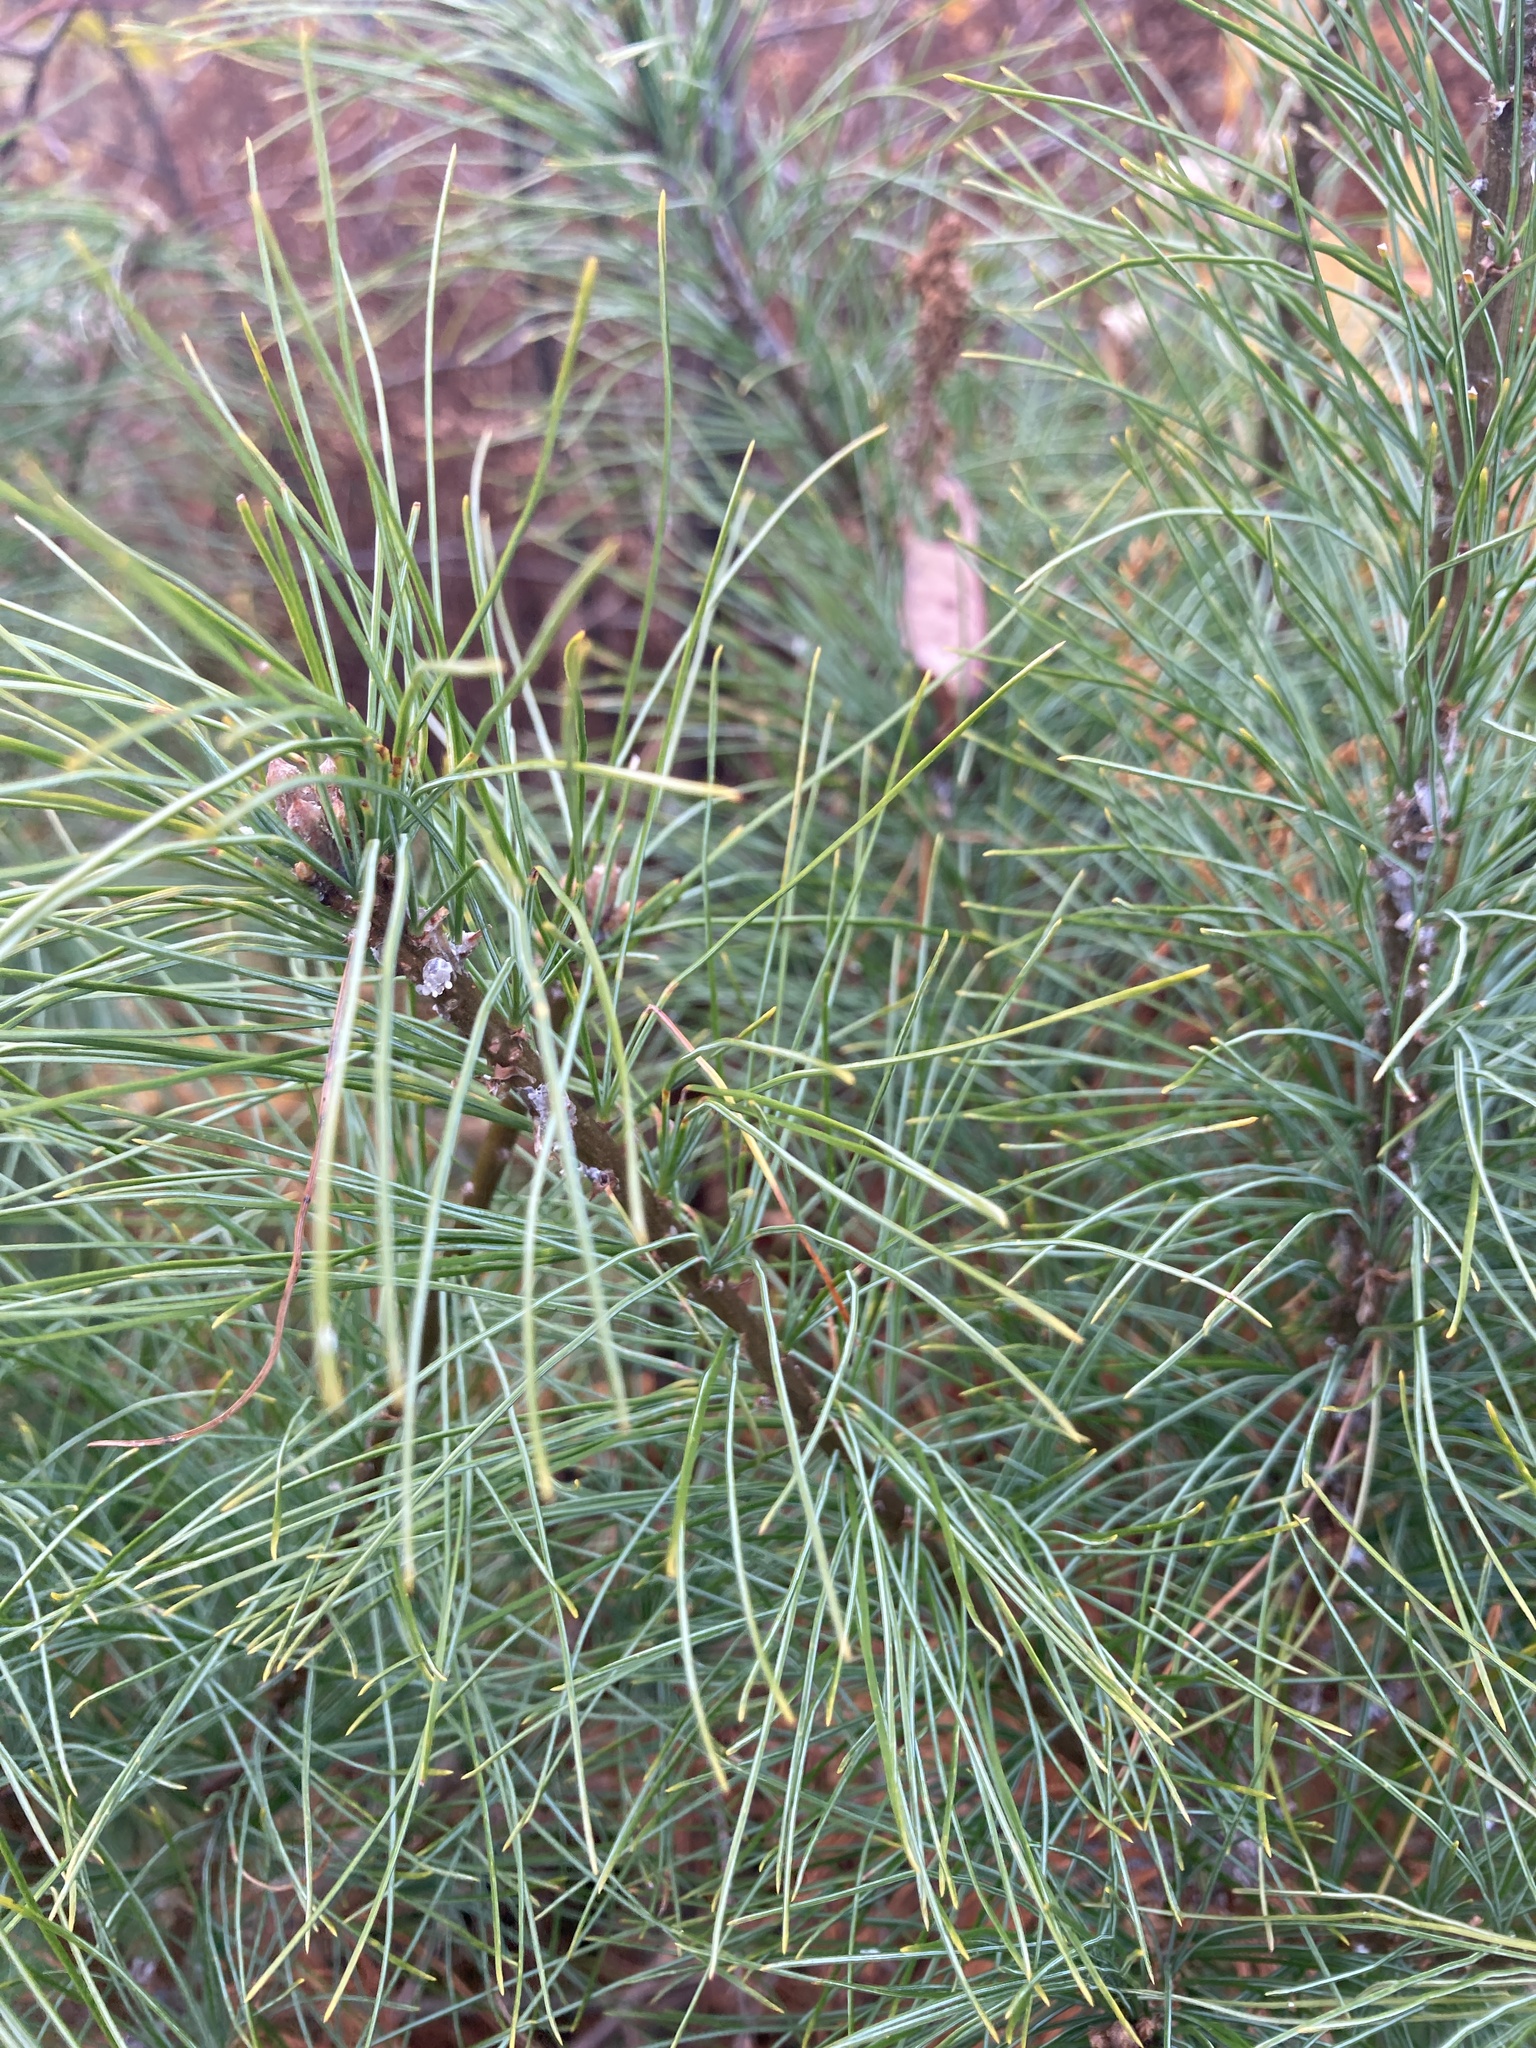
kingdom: Plantae
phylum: Tracheophyta
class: Pinopsida
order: Pinales
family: Pinaceae
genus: Pinus
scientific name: Pinus strobus
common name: Weymouth pine
